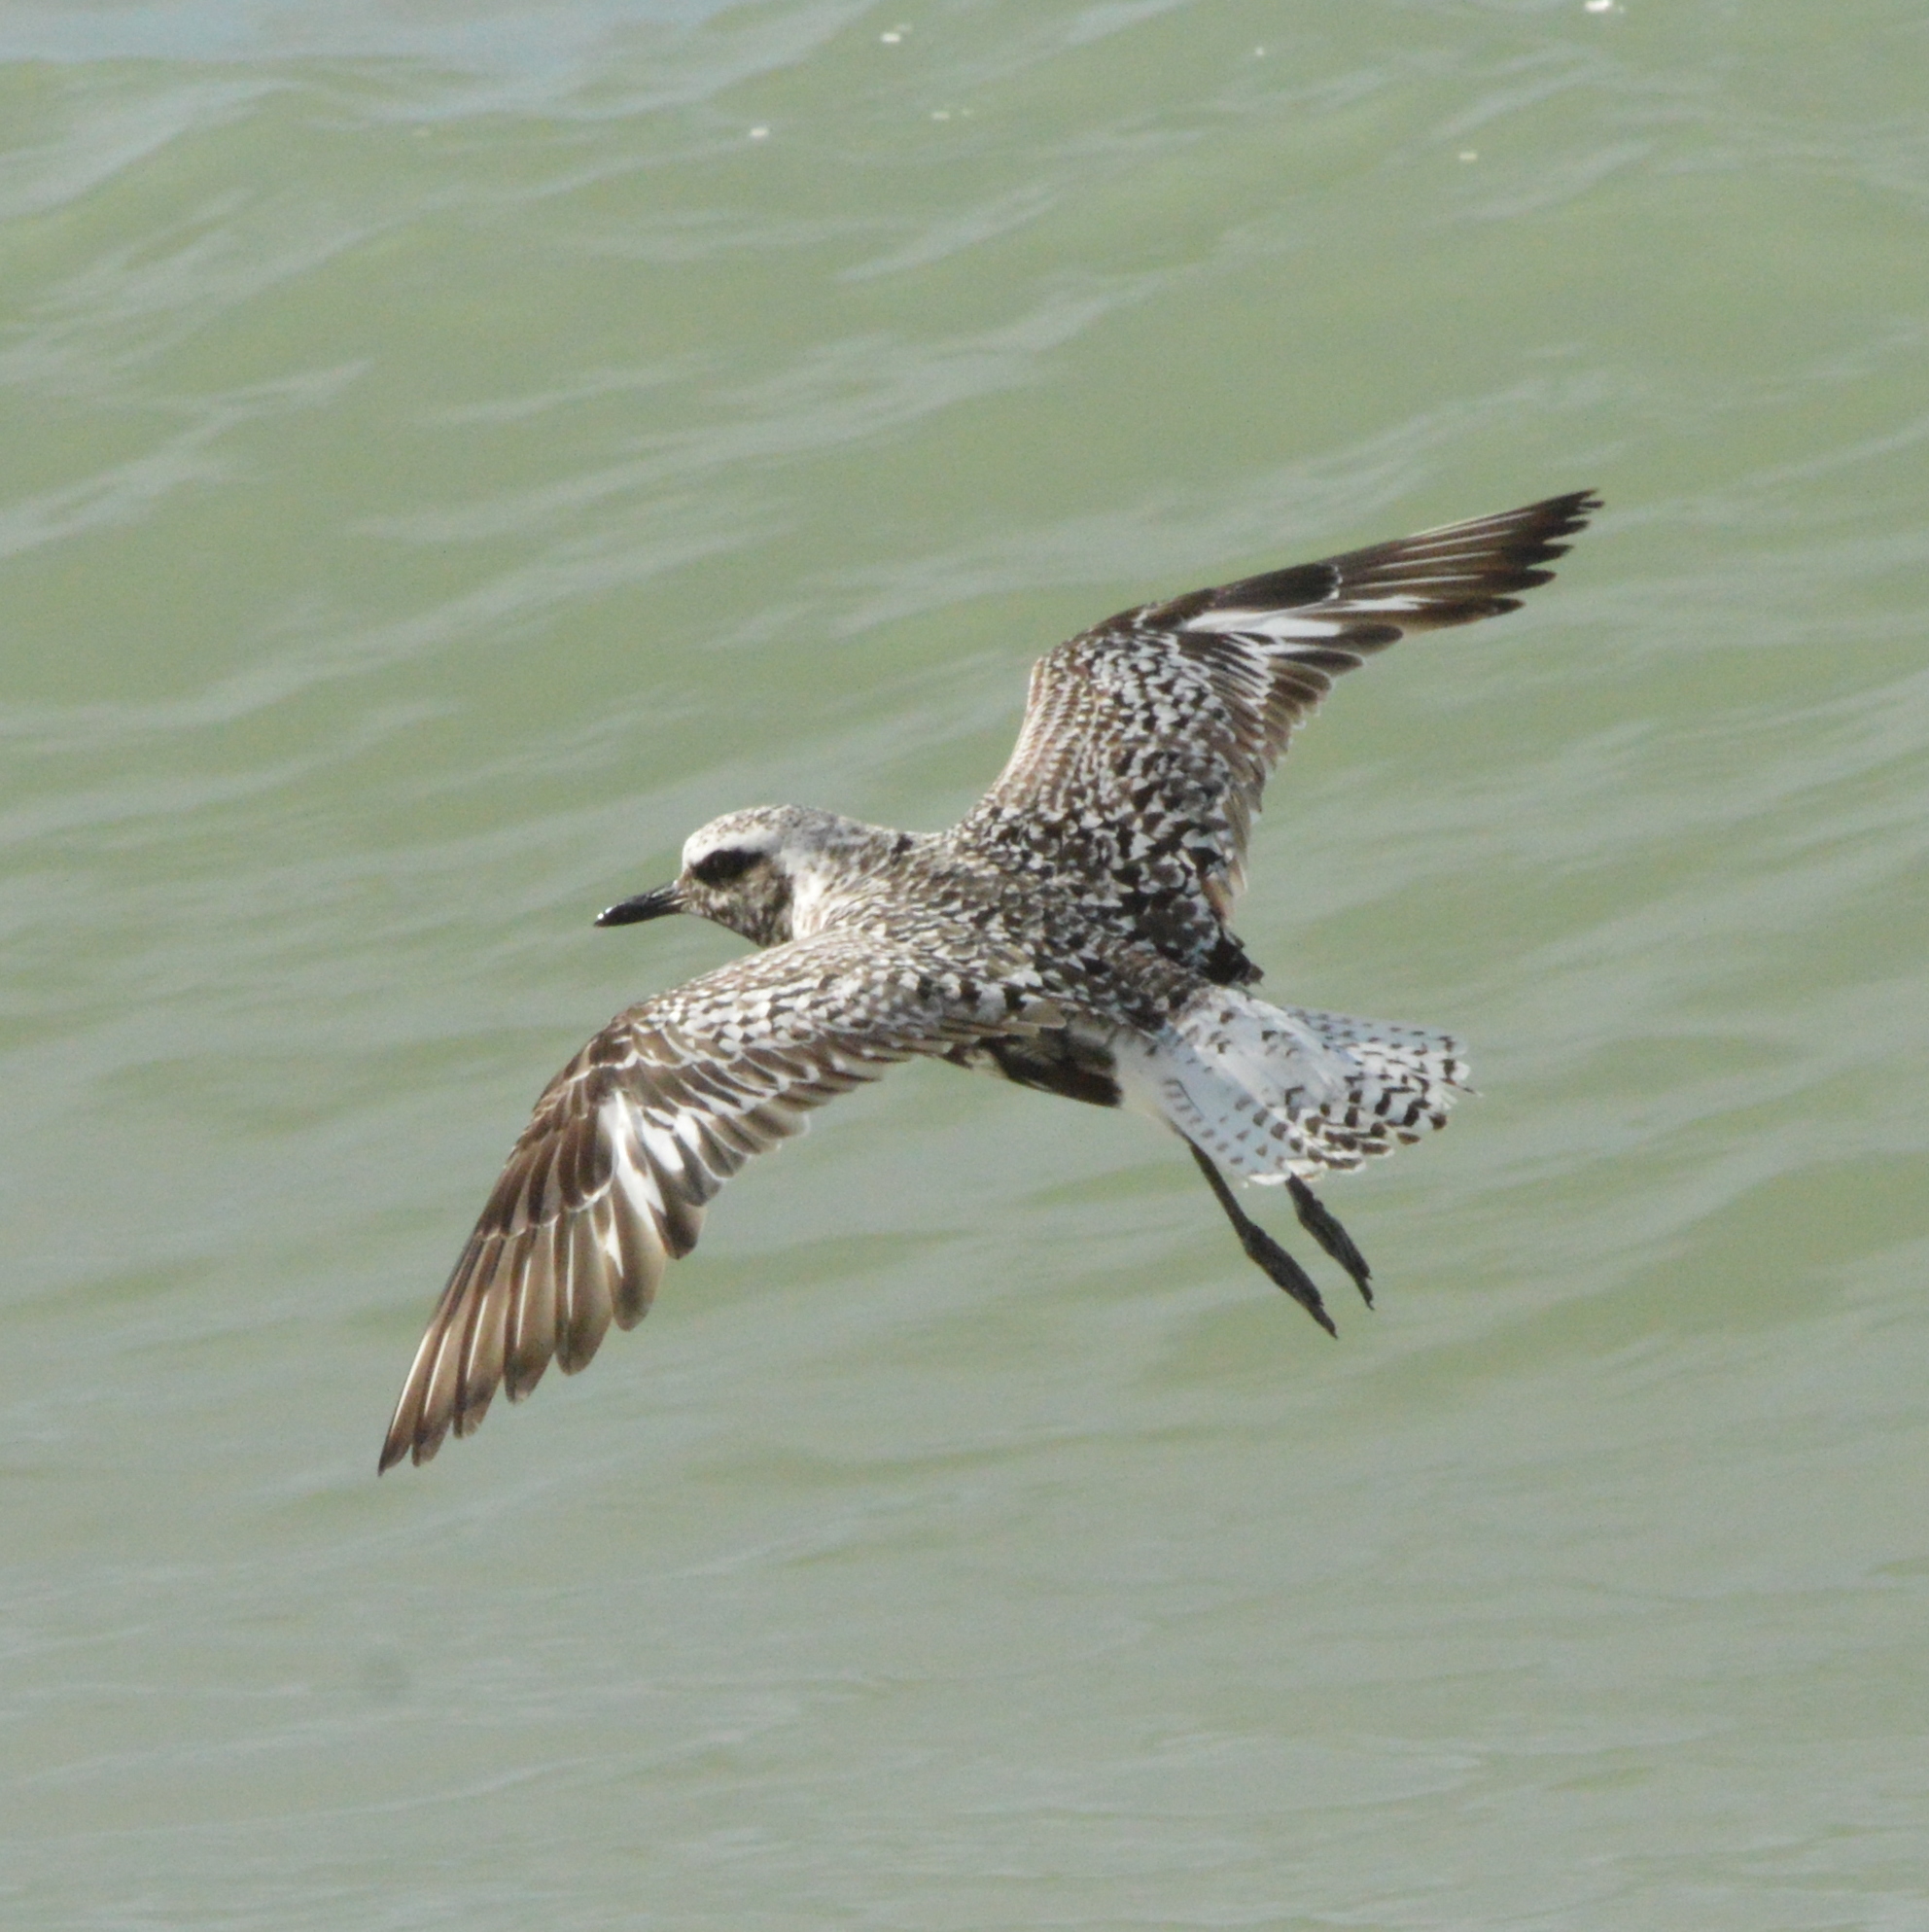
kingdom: Animalia
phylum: Chordata
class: Aves
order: Charadriiformes
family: Charadriidae
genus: Pluvialis
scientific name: Pluvialis squatarola
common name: Grey plover
